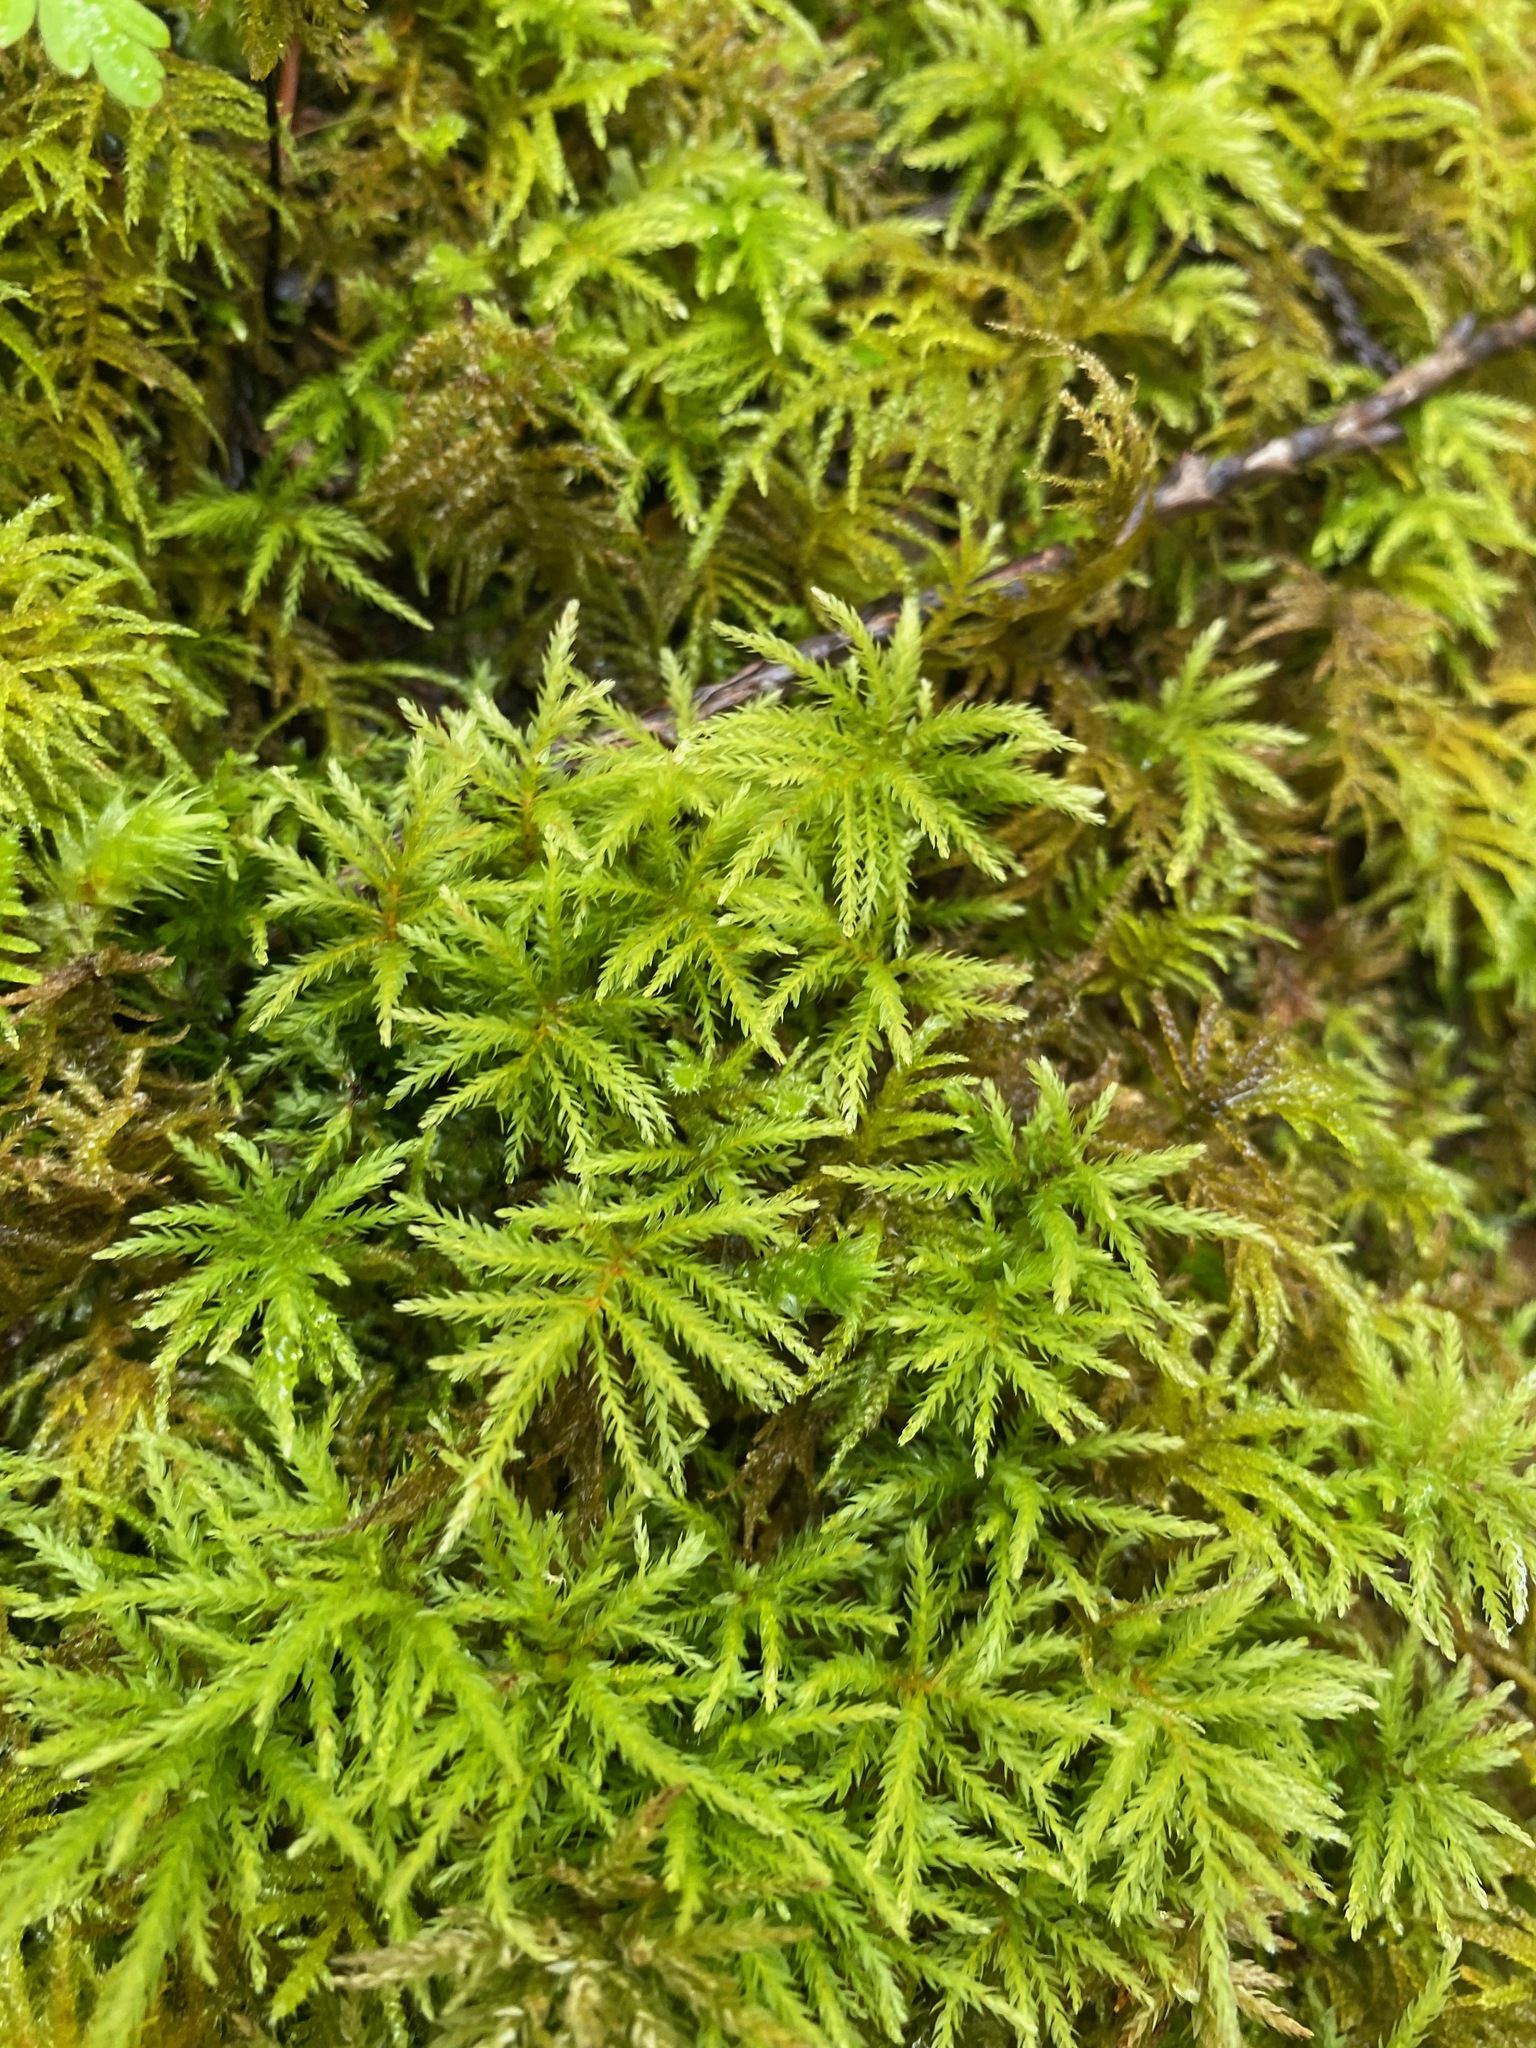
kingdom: Plantae
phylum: Bryophyta
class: Bryopsida
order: Bryales
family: Mniaceae
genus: Leucolepis
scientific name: Leucolepis acanthoneura
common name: Leucolepis umbrella moss
